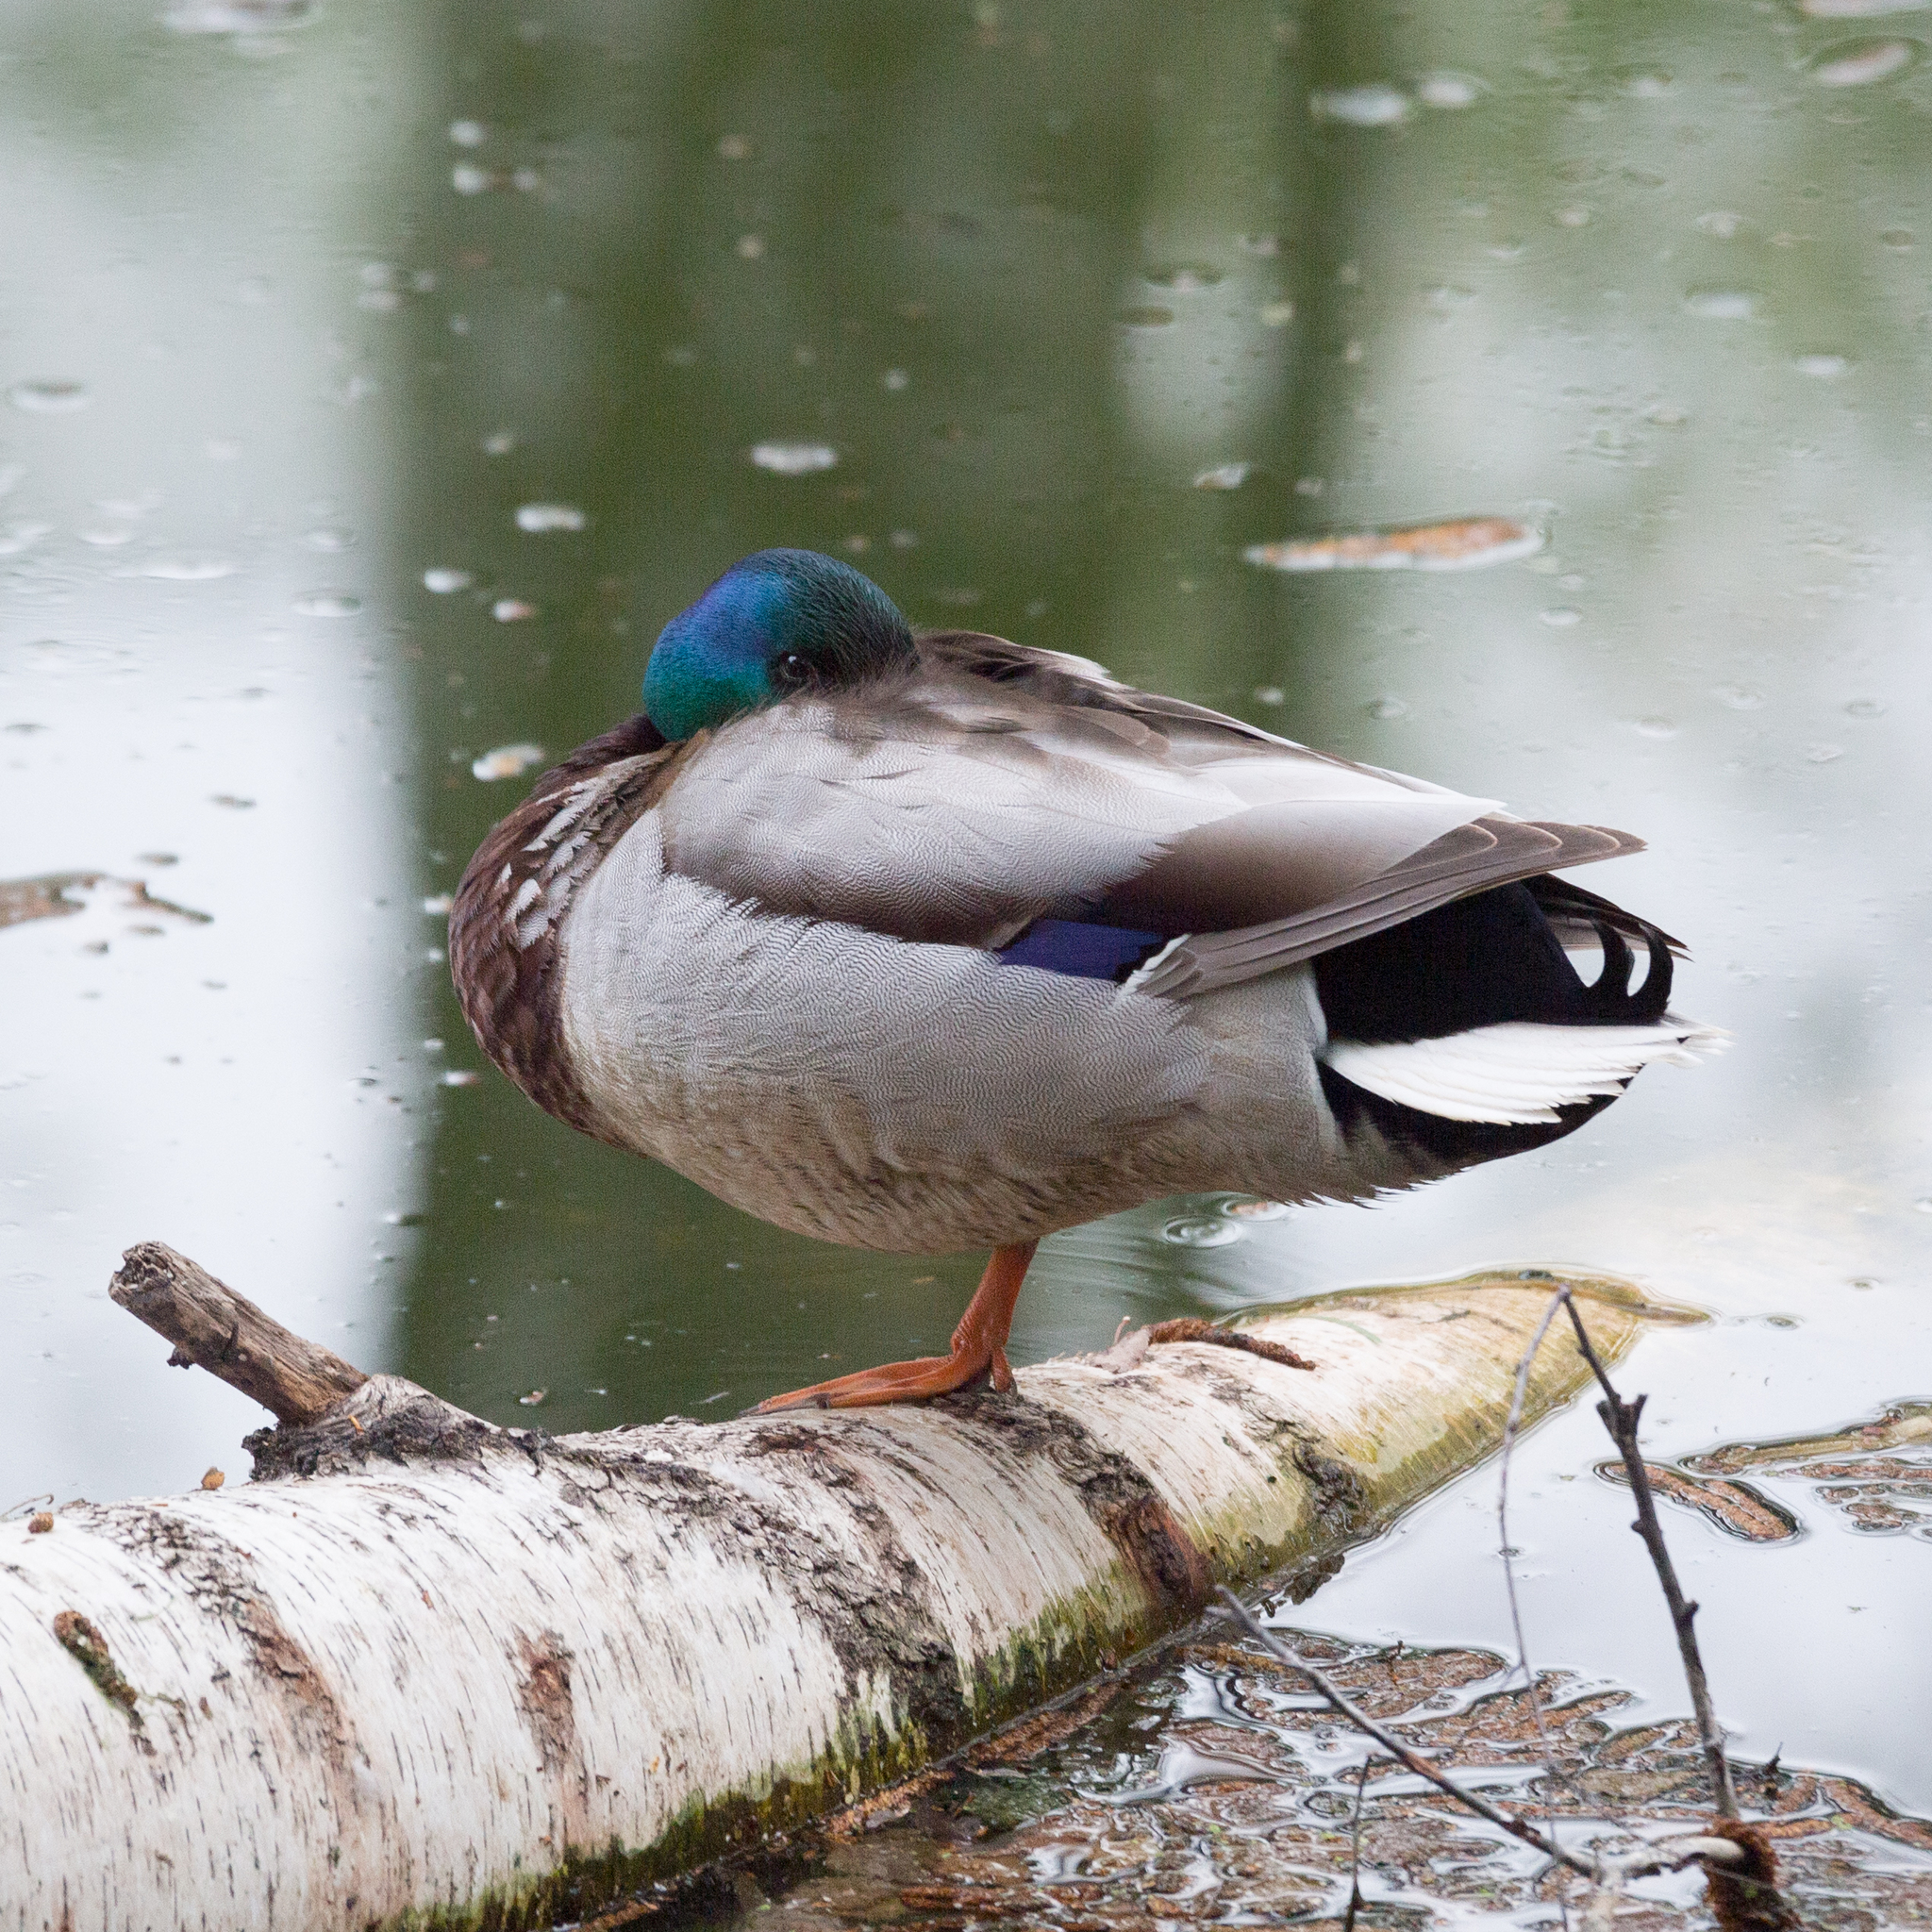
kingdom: Animalia
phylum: Chordata
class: Aves
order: Anseriformes
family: Anatidae
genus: Anas
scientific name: Anas platyrhynchos
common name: Mallard
